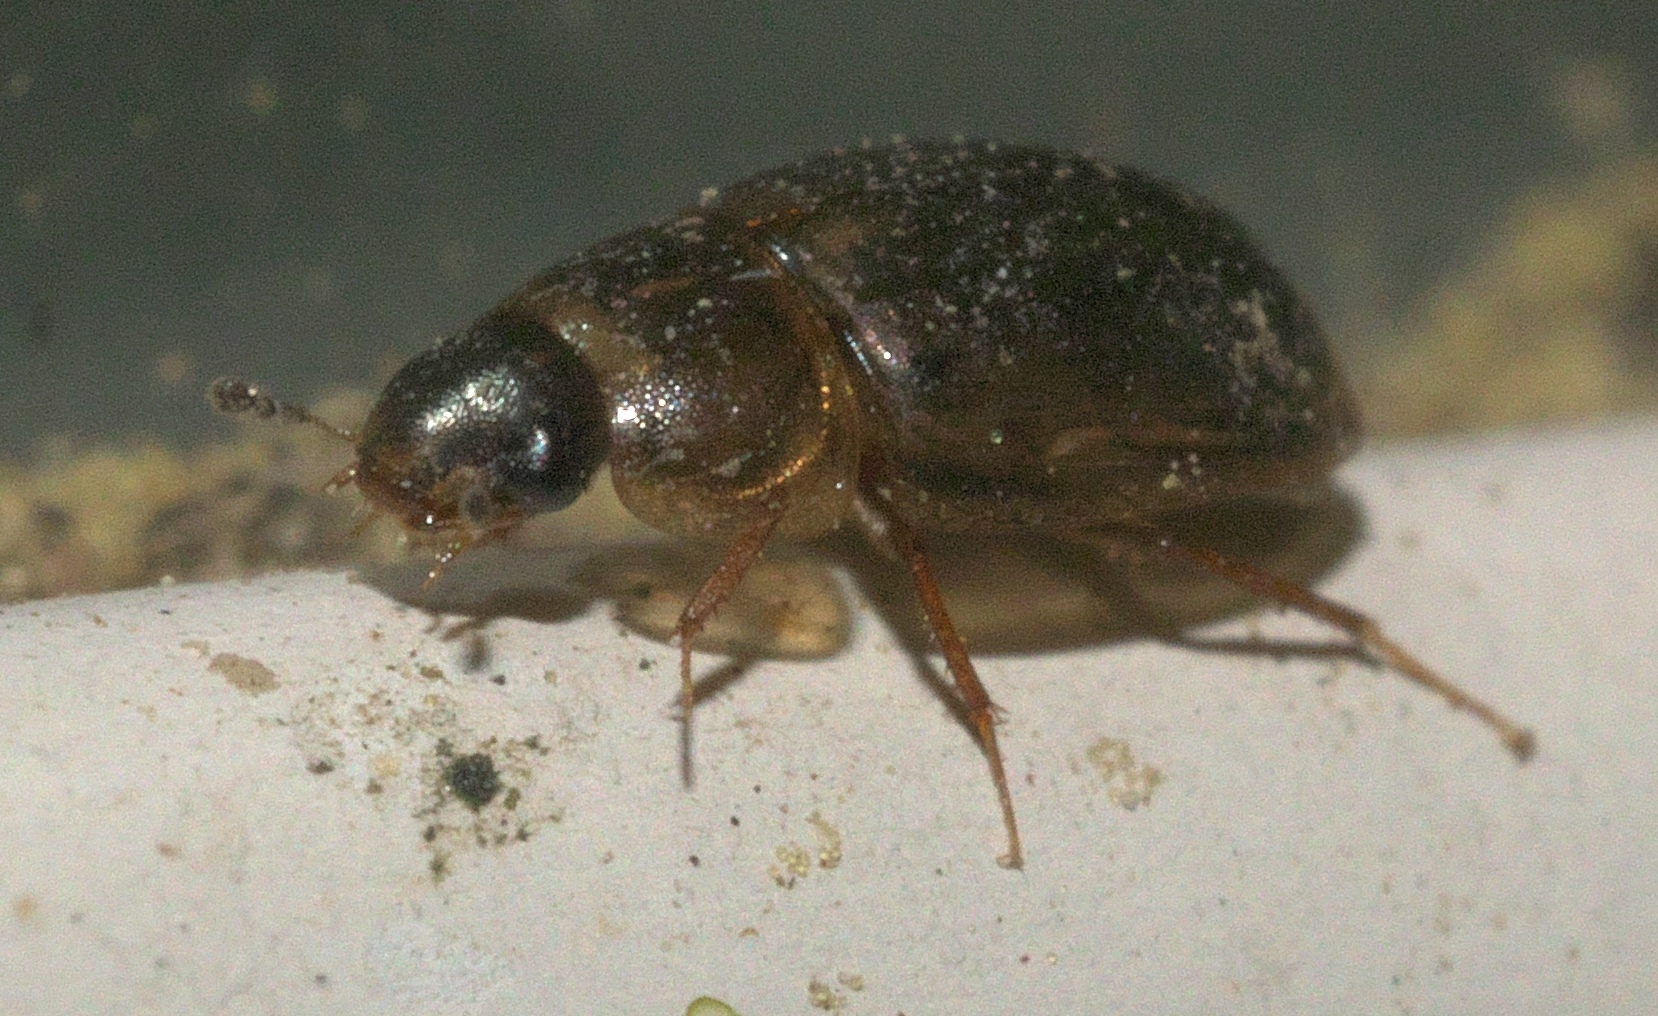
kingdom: Animalia
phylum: Arthropoda
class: Insecta
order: Coleoptera
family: Hydrophilidae
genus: Enochrus
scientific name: Enochrus
